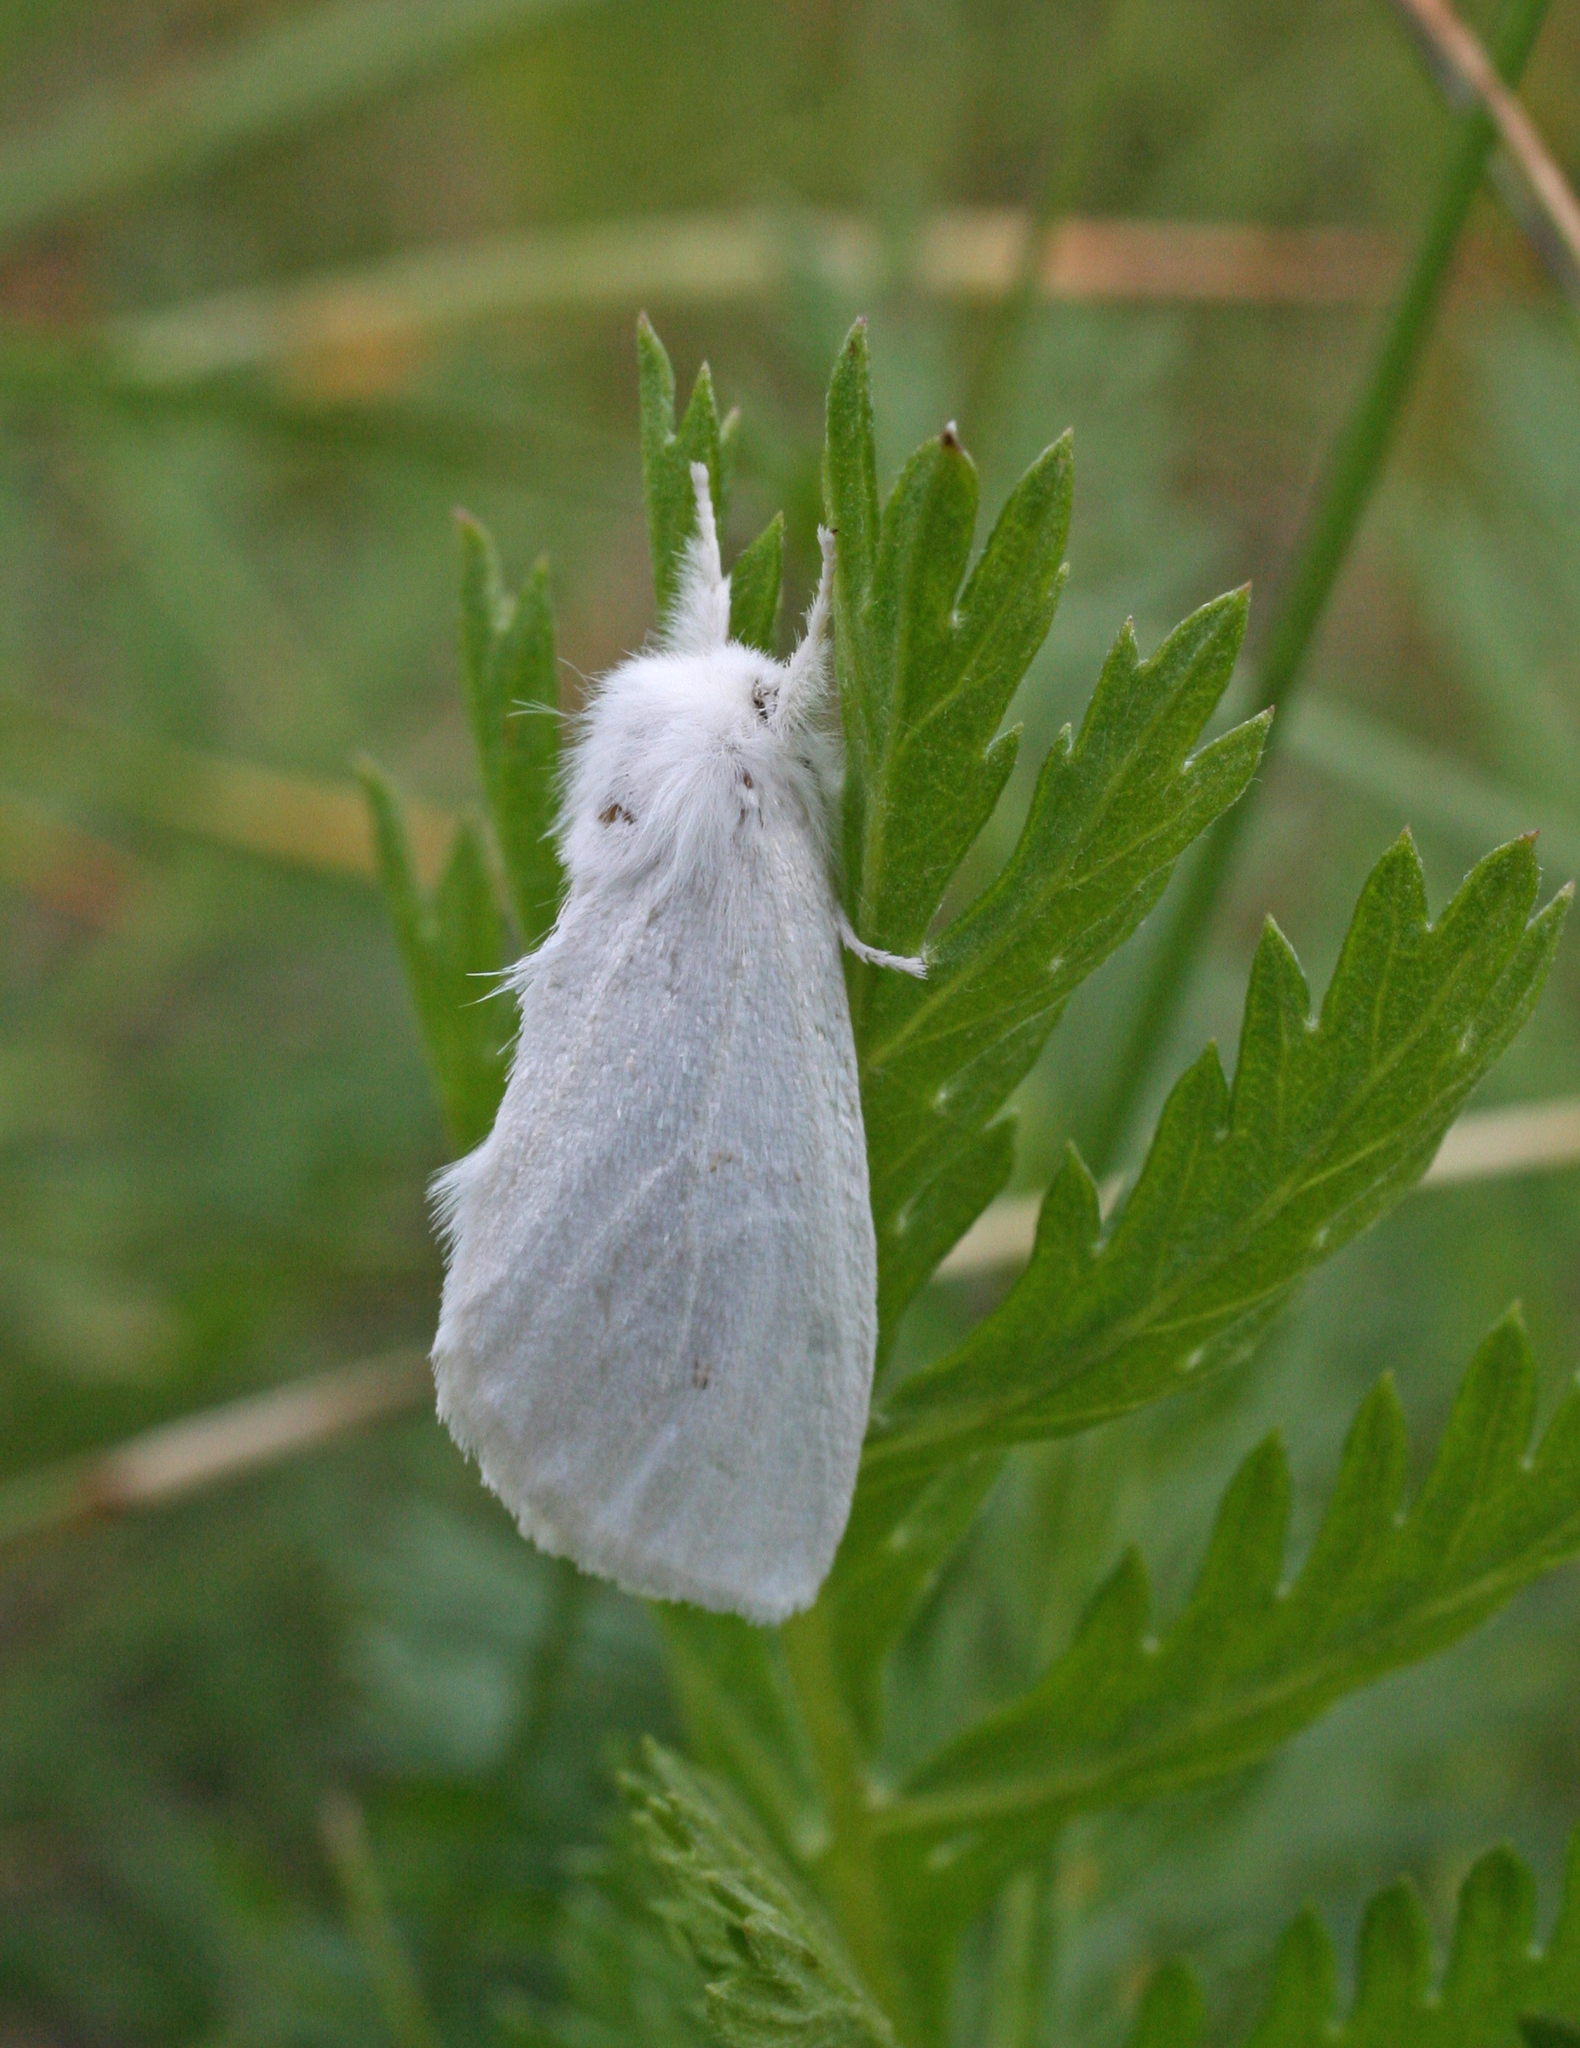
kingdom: Animalia
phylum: Arthropoda
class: Insecta
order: Lepidoptera
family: Notodontidae
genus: Leucodonta
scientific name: Leucodonta bicoloria
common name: White prominent
